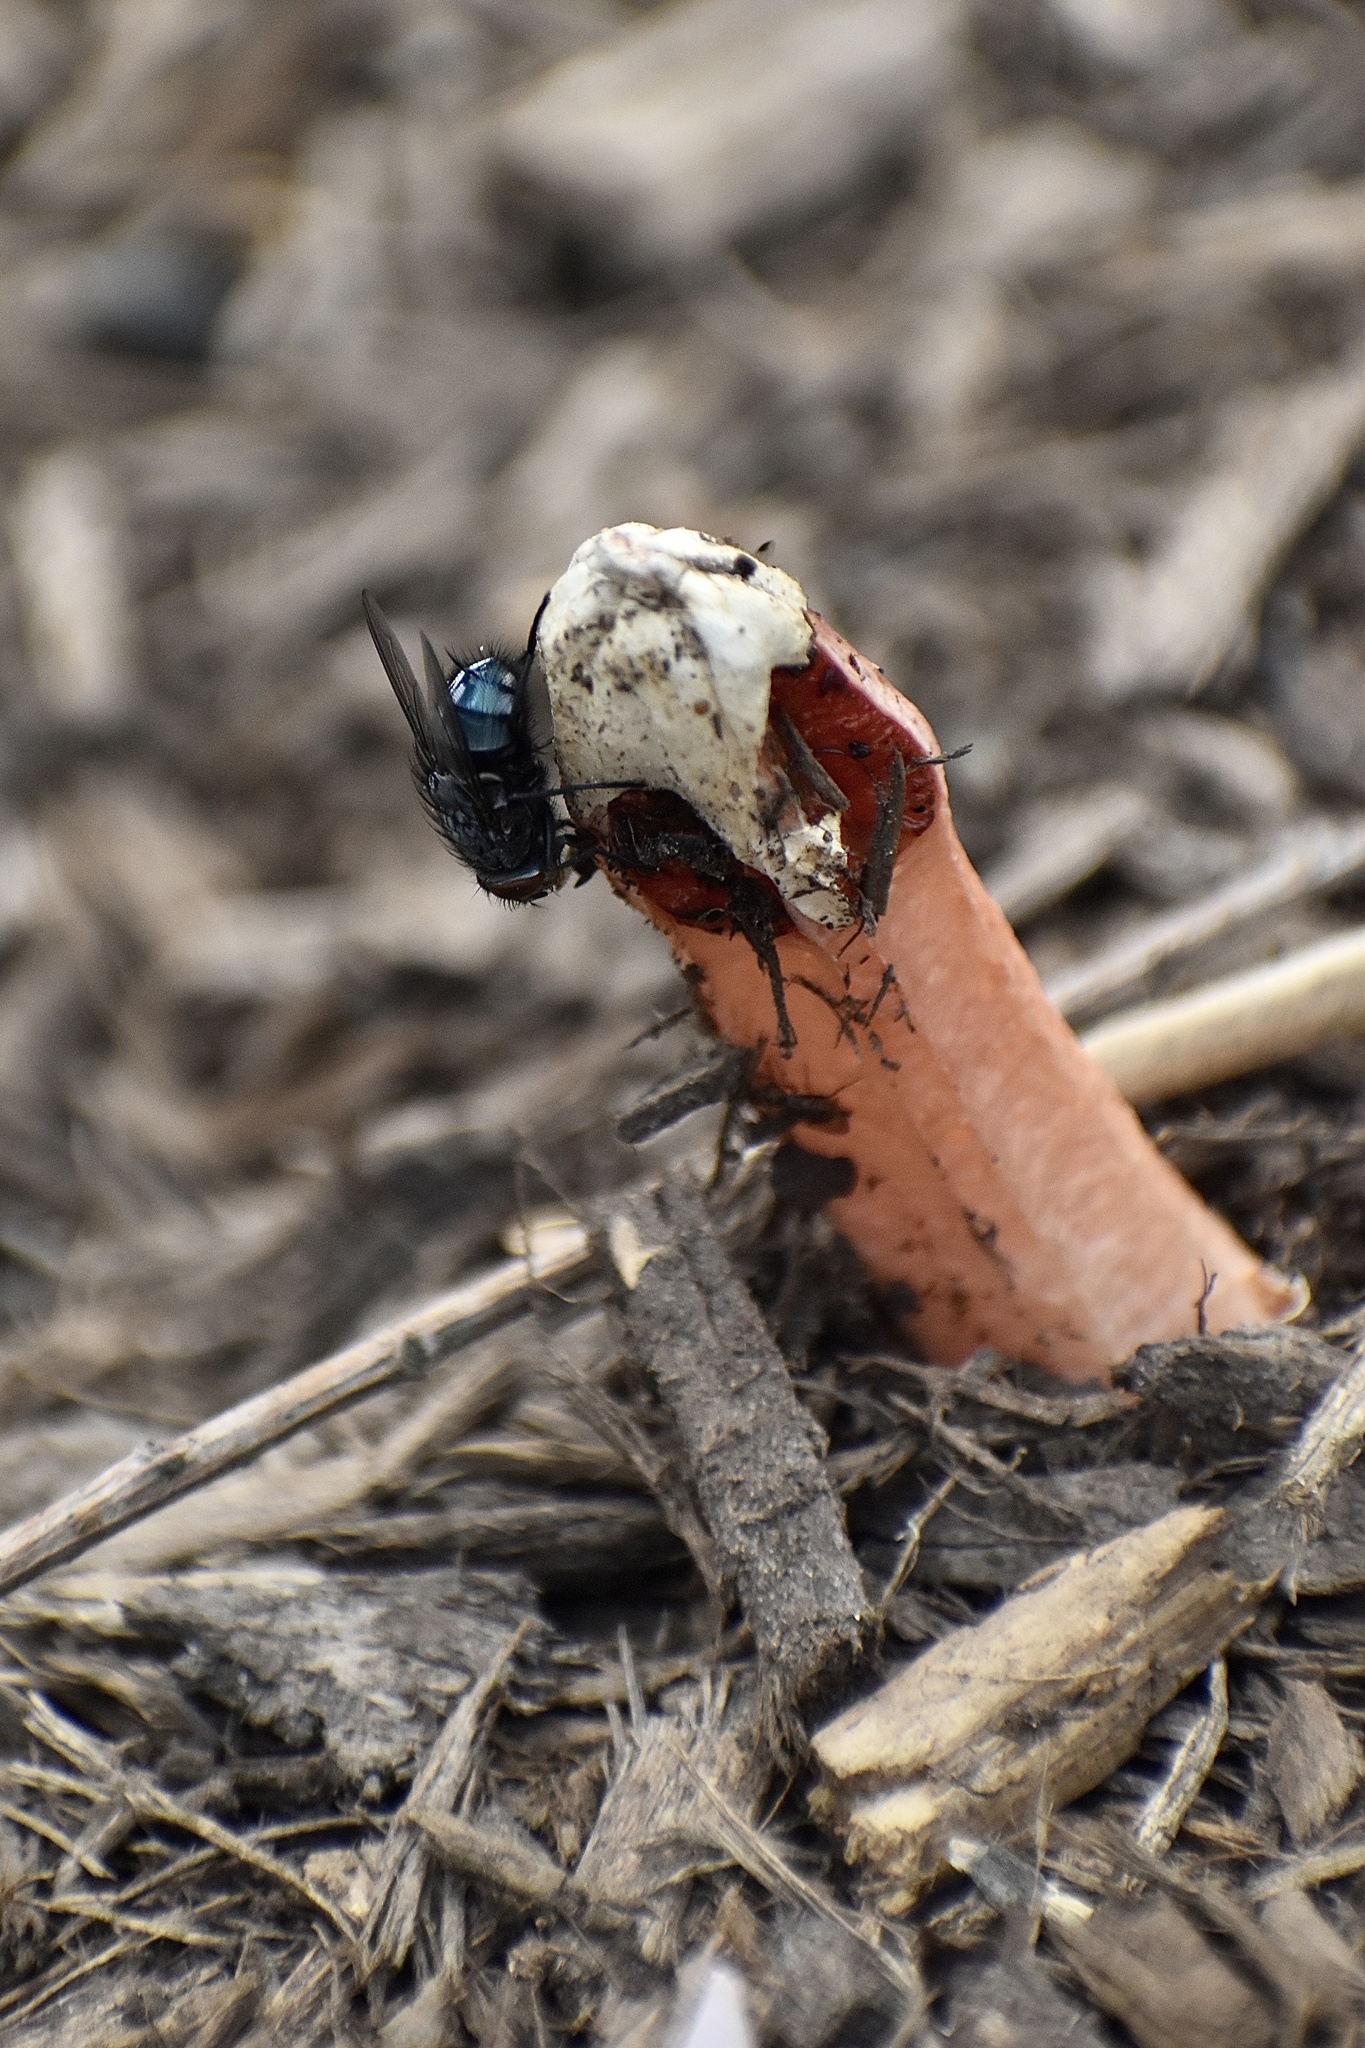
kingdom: Fungi
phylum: Basidiomycota
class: Agaricomycetes
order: Phallales
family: Phallaceae
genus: Lysurus
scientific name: Lysurus mokusin
